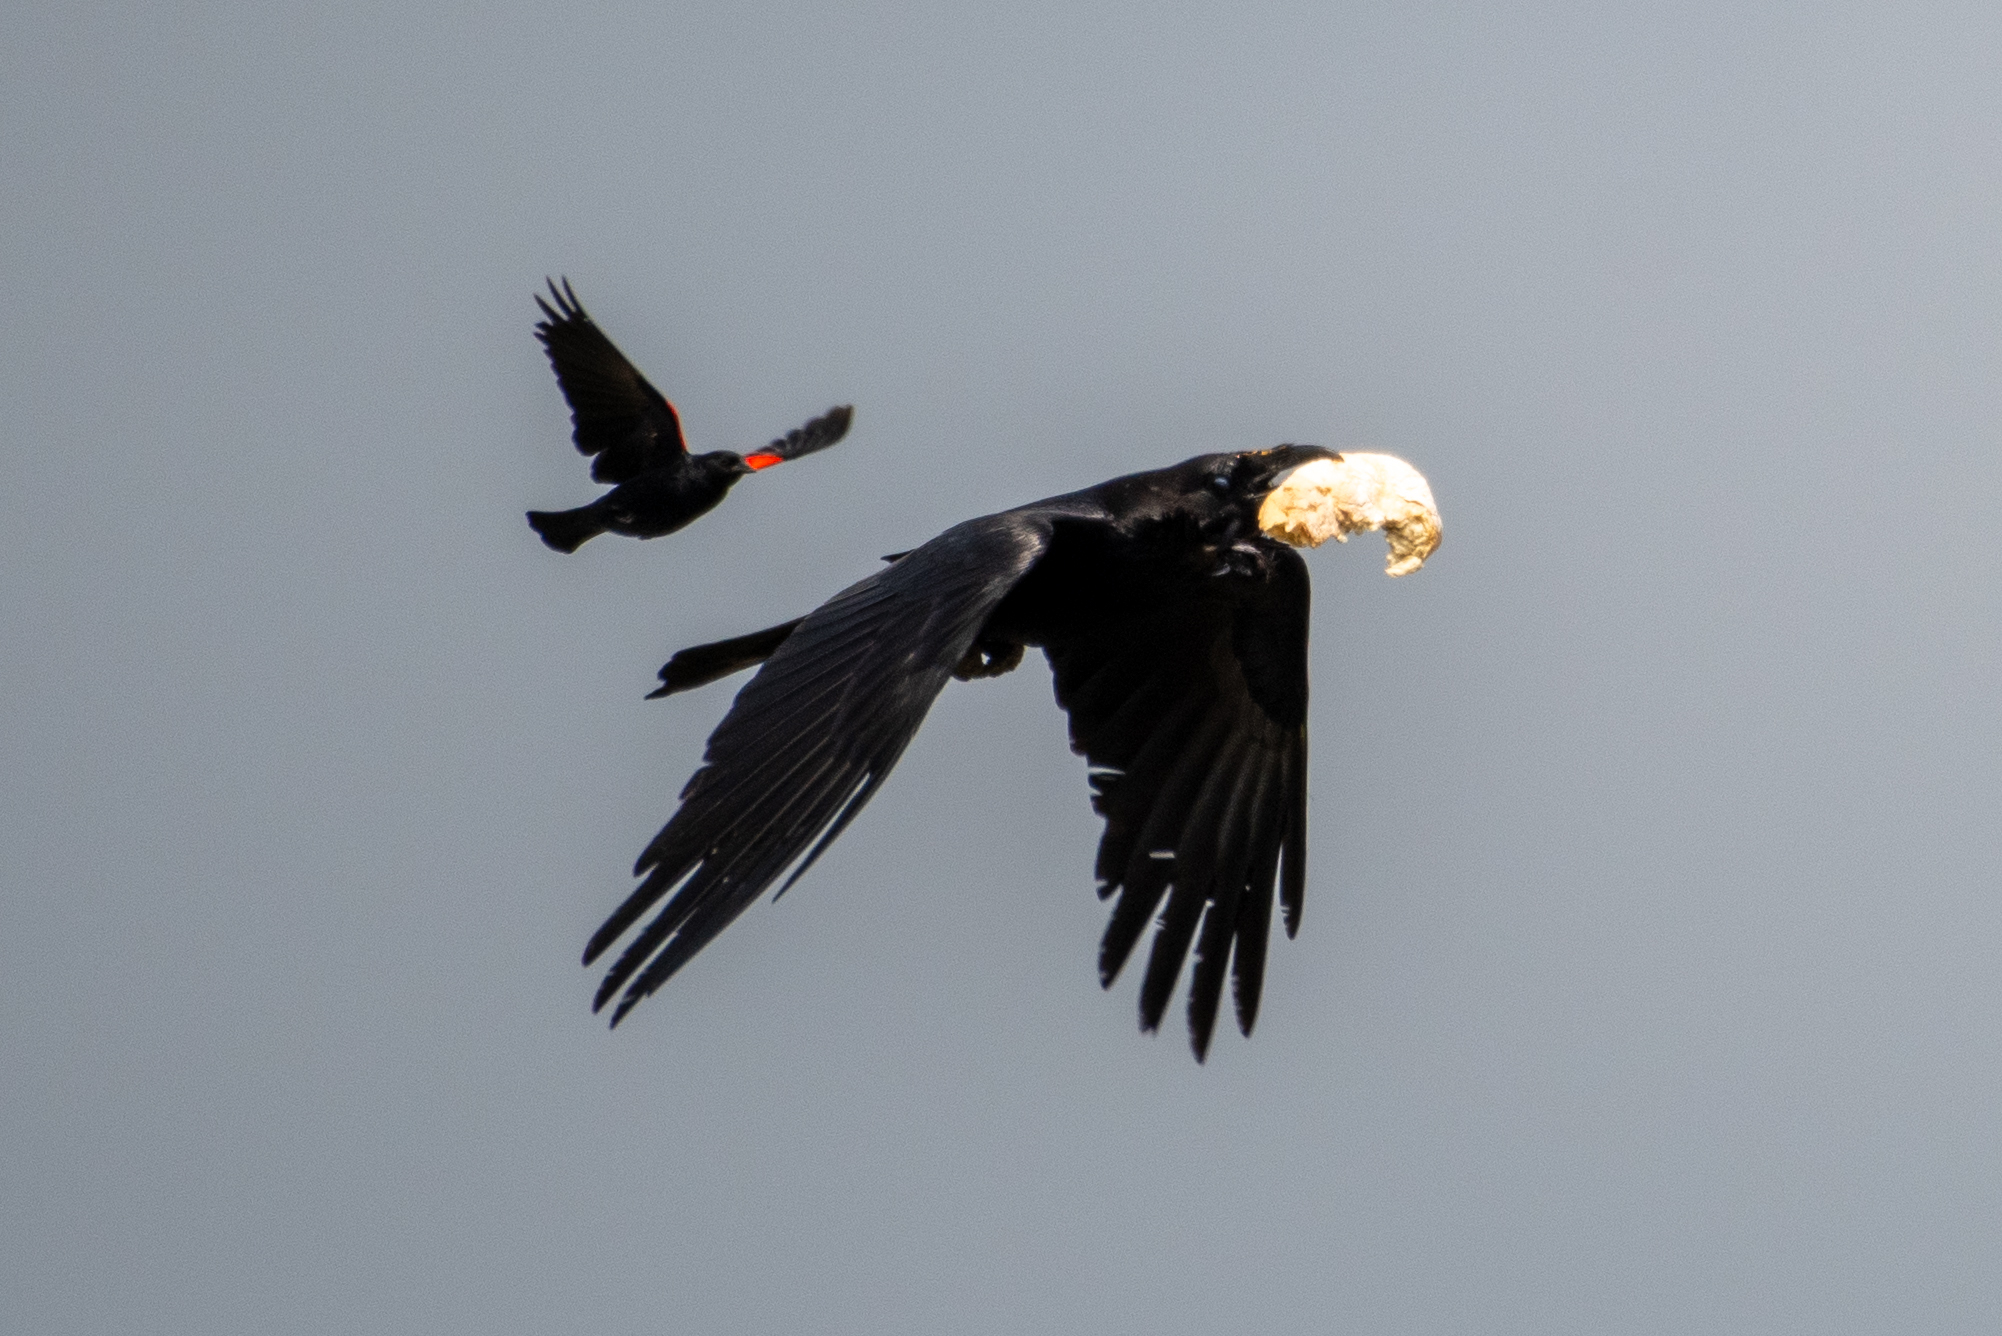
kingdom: Animalia
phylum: Chordata
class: Aves
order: Passeriformes
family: Corvidae
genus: Corvus
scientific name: Corvus corax
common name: Common raven
